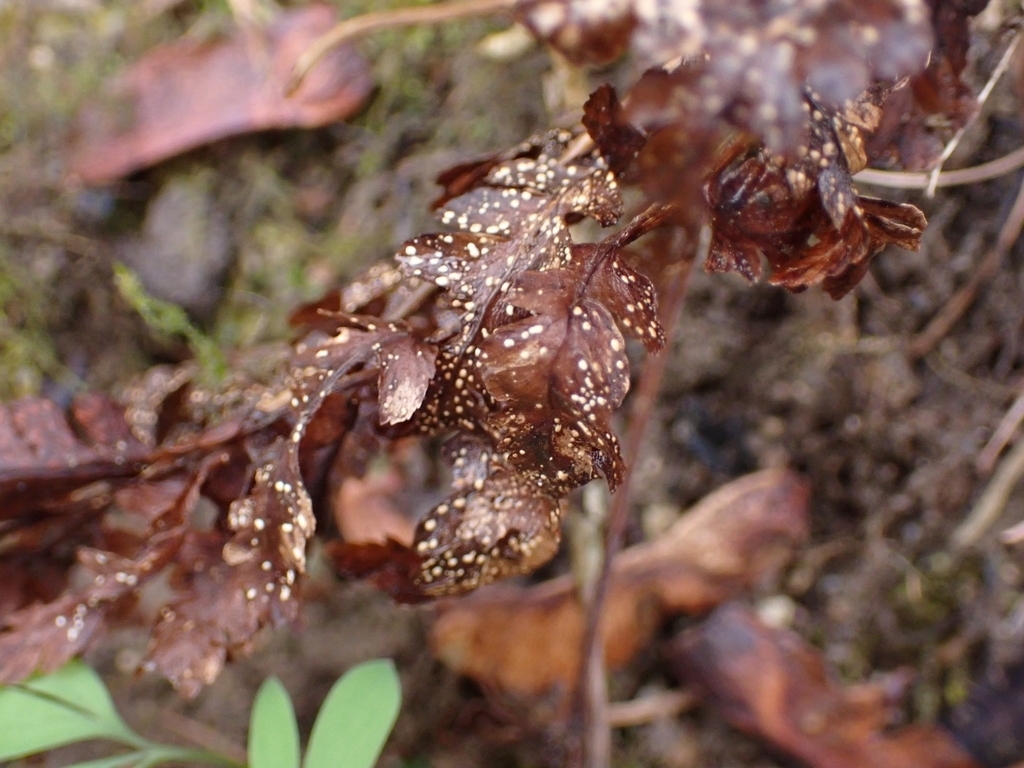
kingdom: Plantae
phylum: Tracheophyta
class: Polypodiopsida
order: Polypodiales
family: Dryopteridaceae
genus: Dryopteris
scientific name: Dryopteris filix-mas
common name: Male fern
